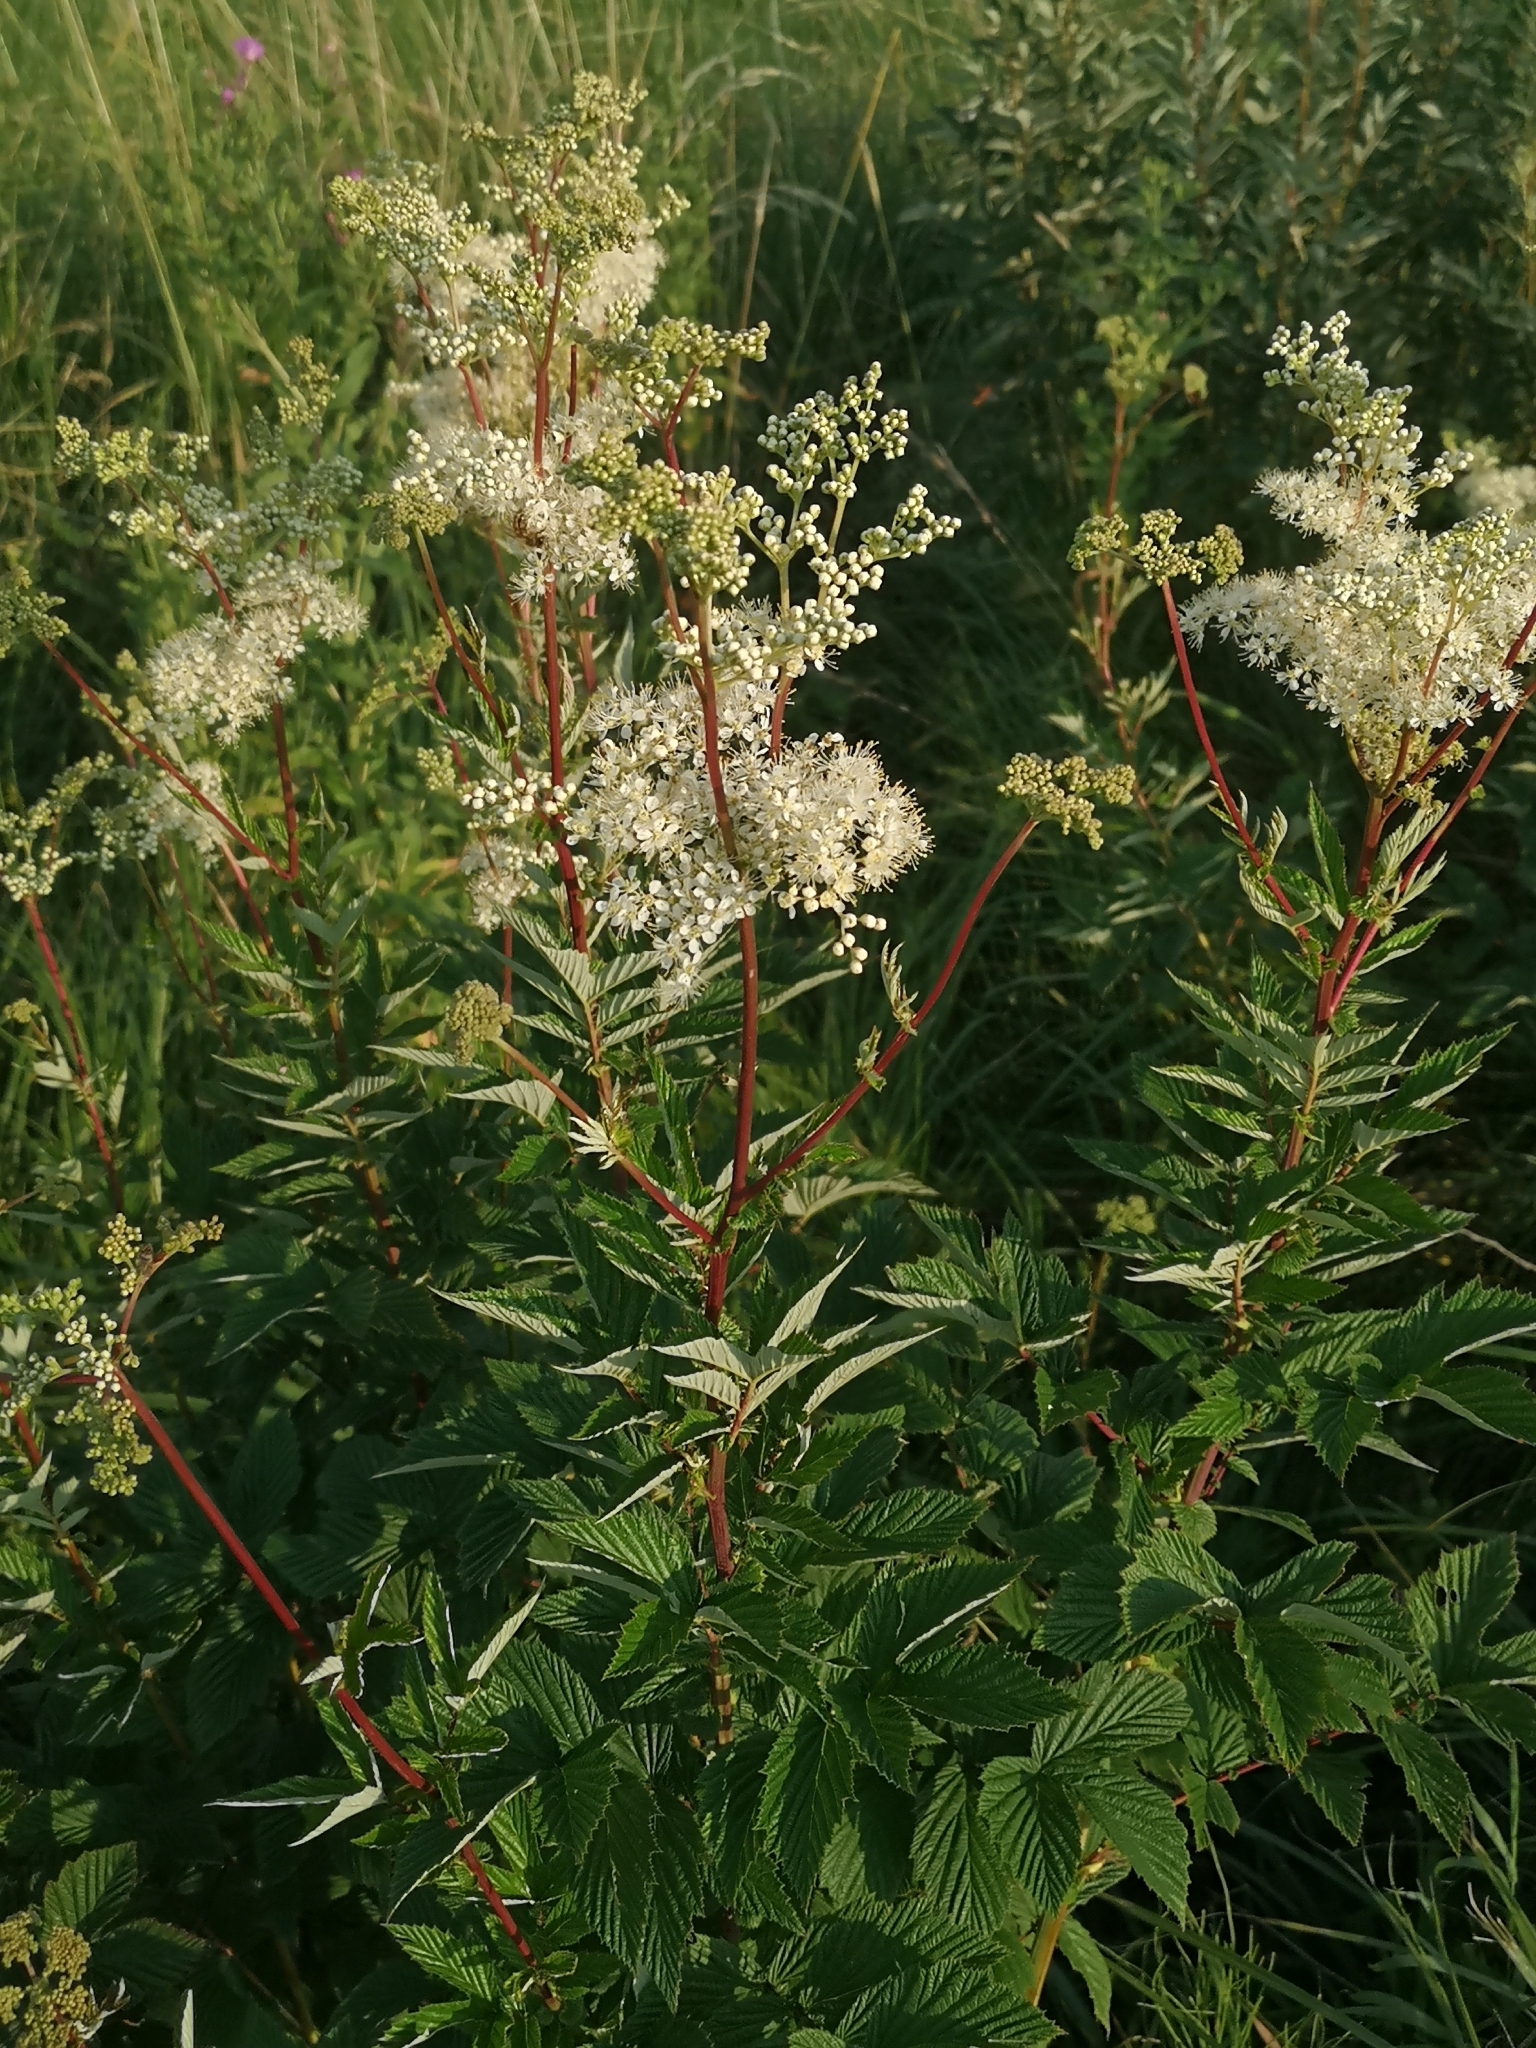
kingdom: Plantae
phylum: Tracheophyta
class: Magnoliopsida
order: Rosales
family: Rosaceae
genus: Filipendula
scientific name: Filipendula ulmaria
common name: Meadowsweet
